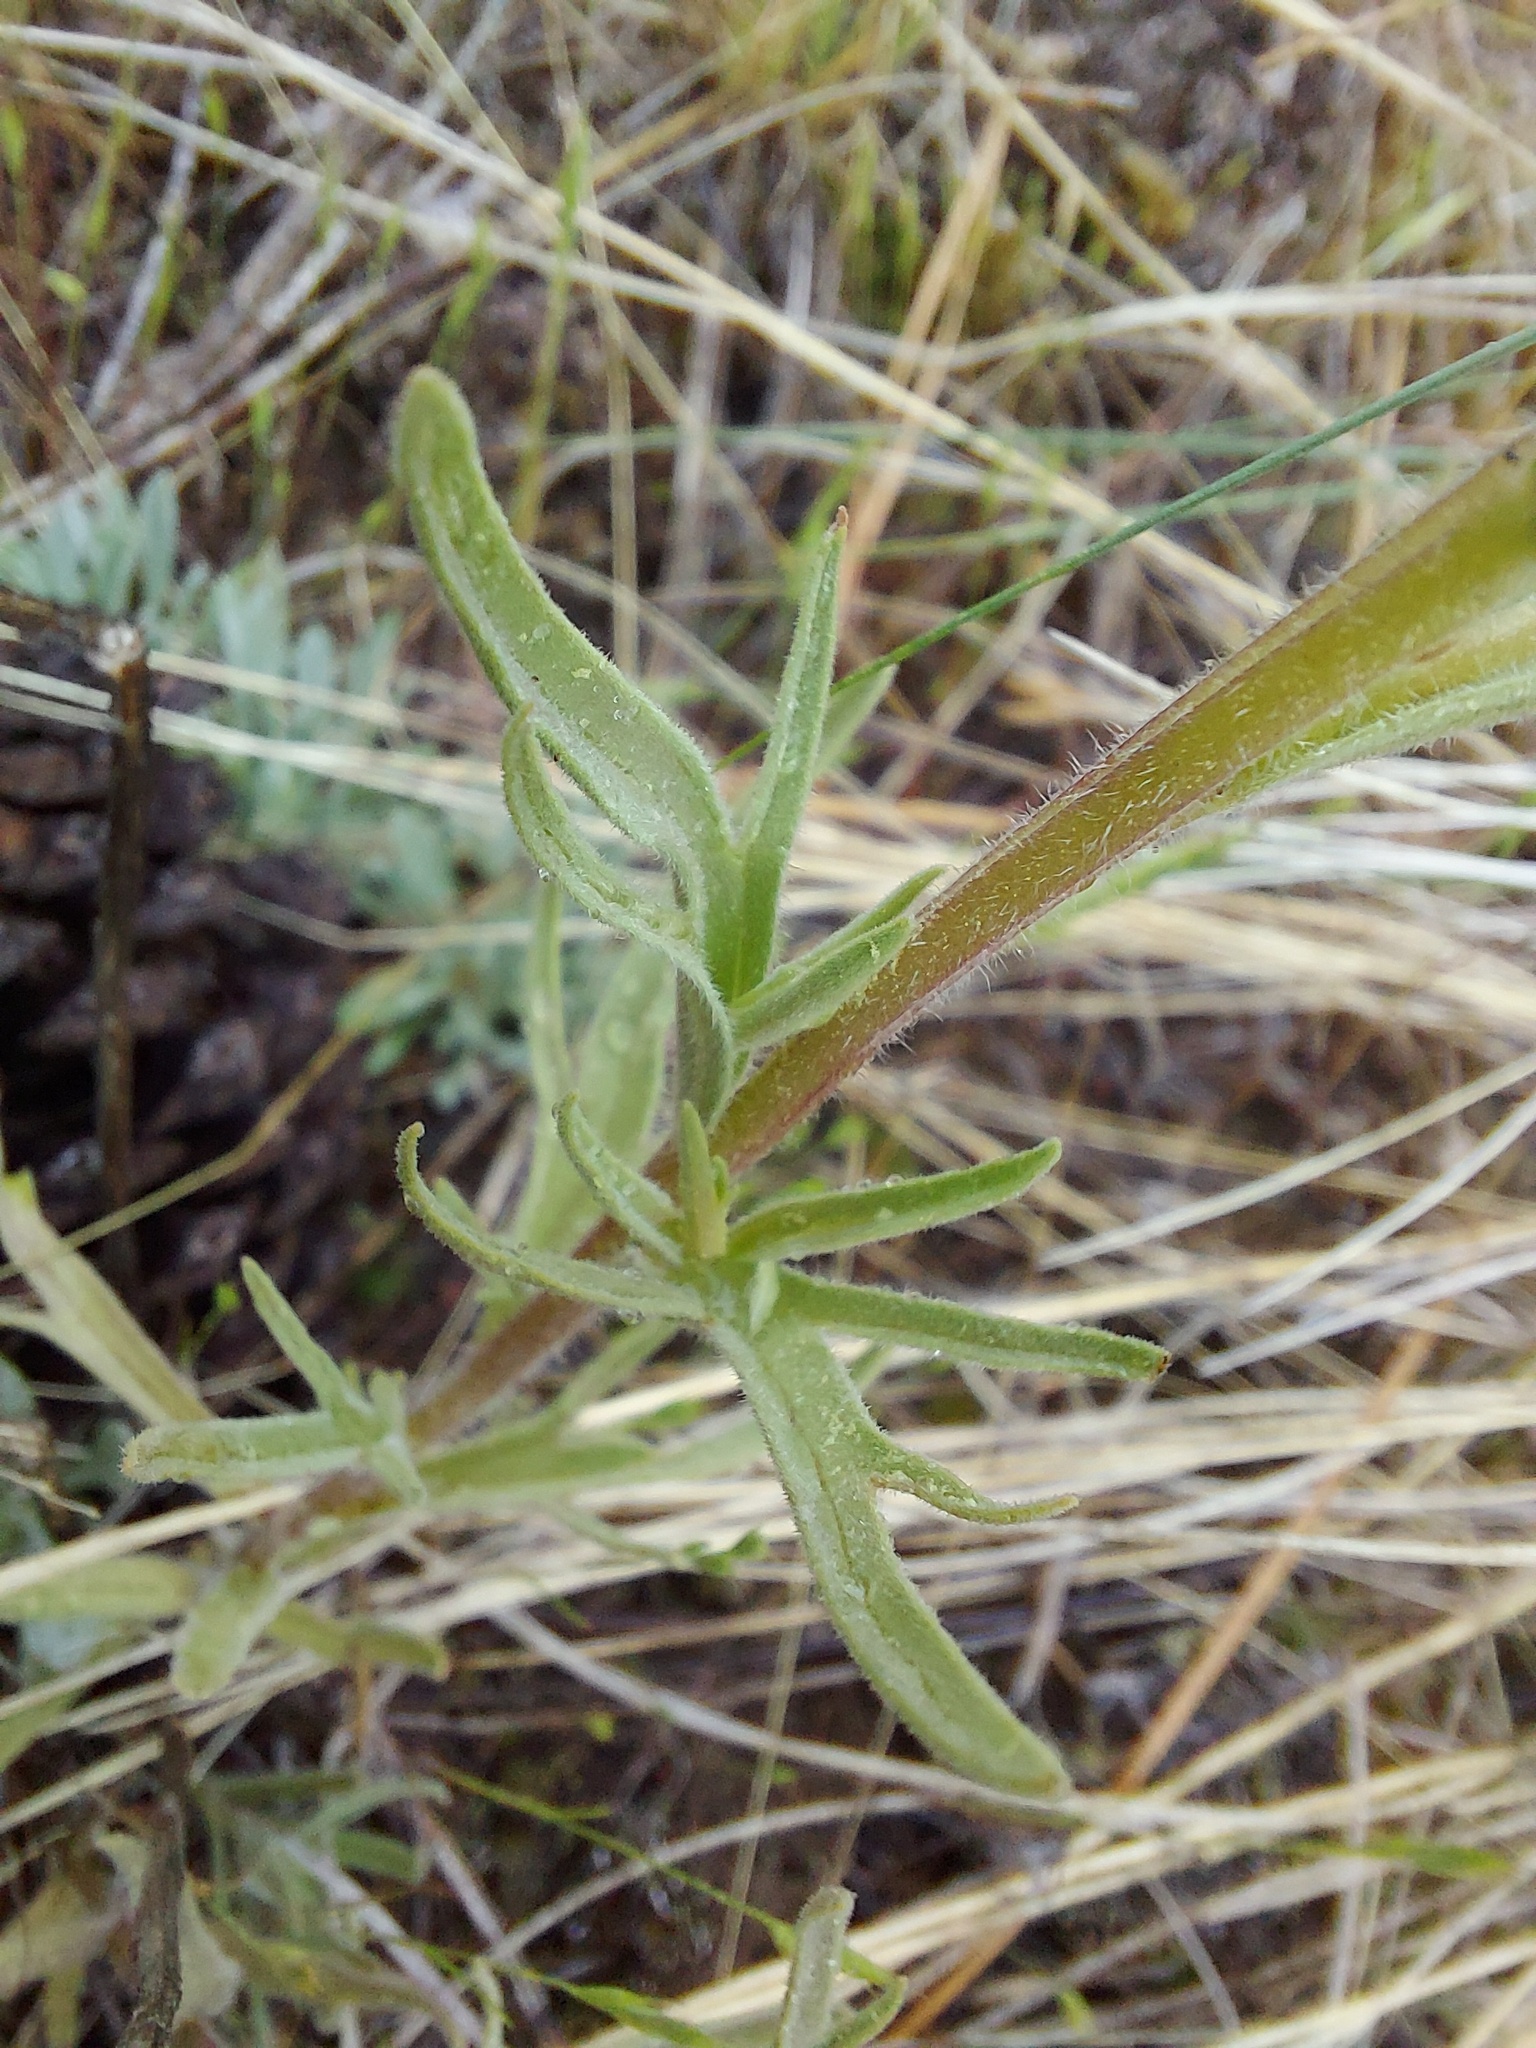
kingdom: Plantae
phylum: Tracheophyta
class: Magnoliopsida
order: Lamiales
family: Orobanchaceae
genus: Castilleja
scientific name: Castilleja thompsonii
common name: Thompson's paintbrush
